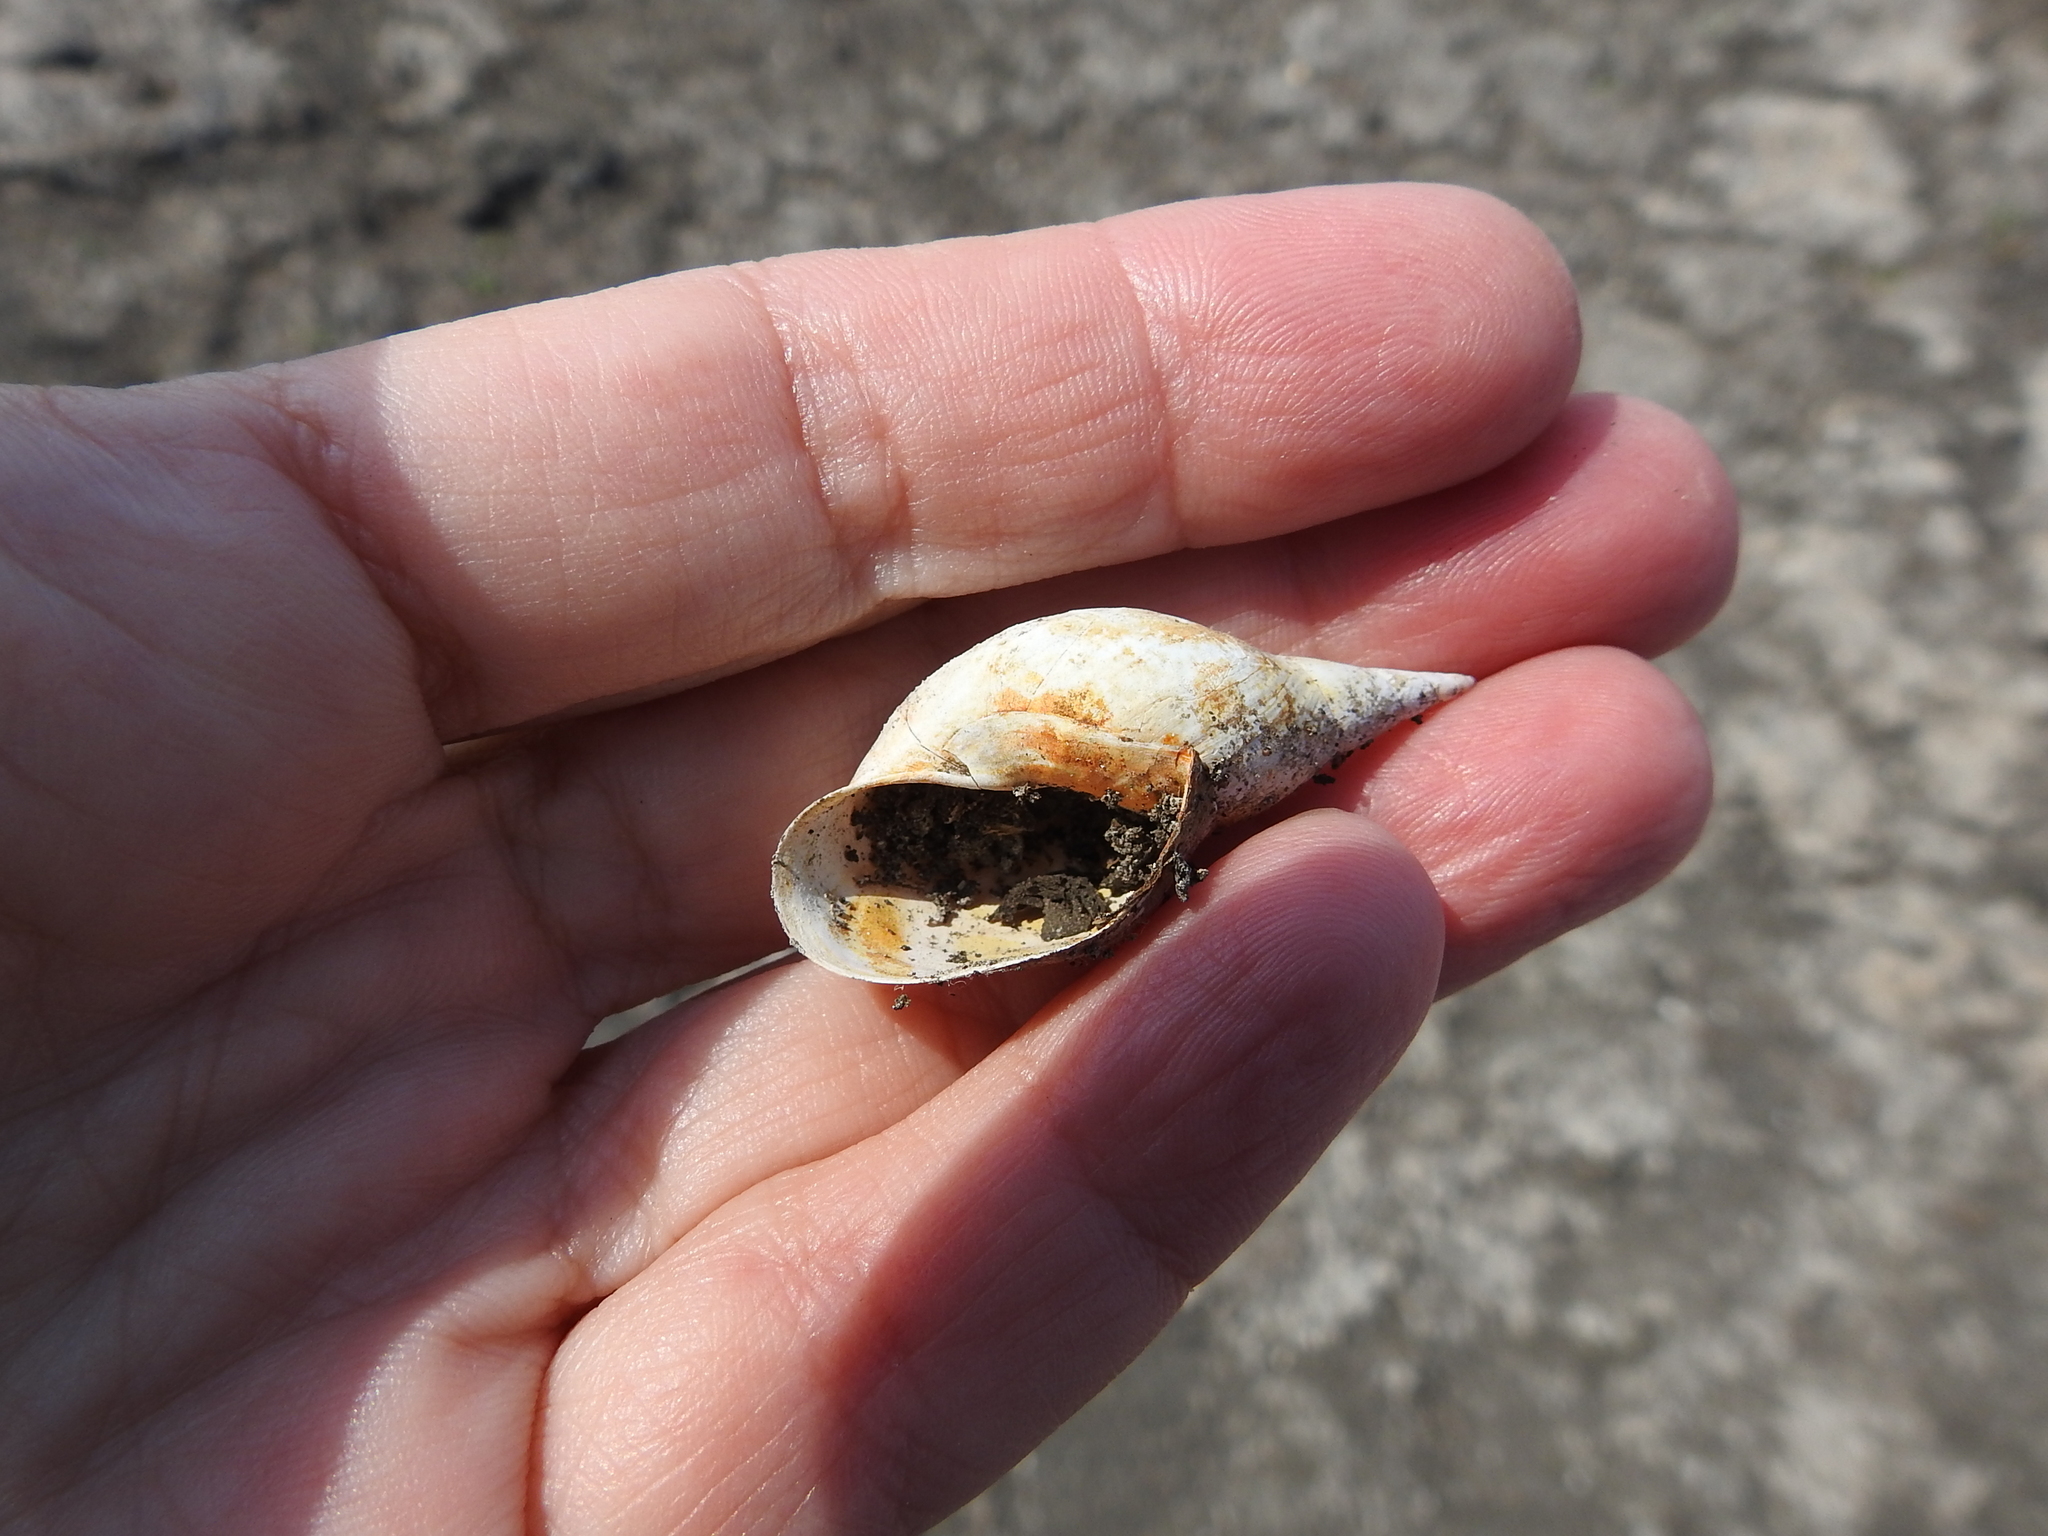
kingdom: Animalia
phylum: Mollusca
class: Gastropoda
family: Lymnaeidae
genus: Lymnaea
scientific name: Lymnaea stagnalis
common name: Great pond snail
